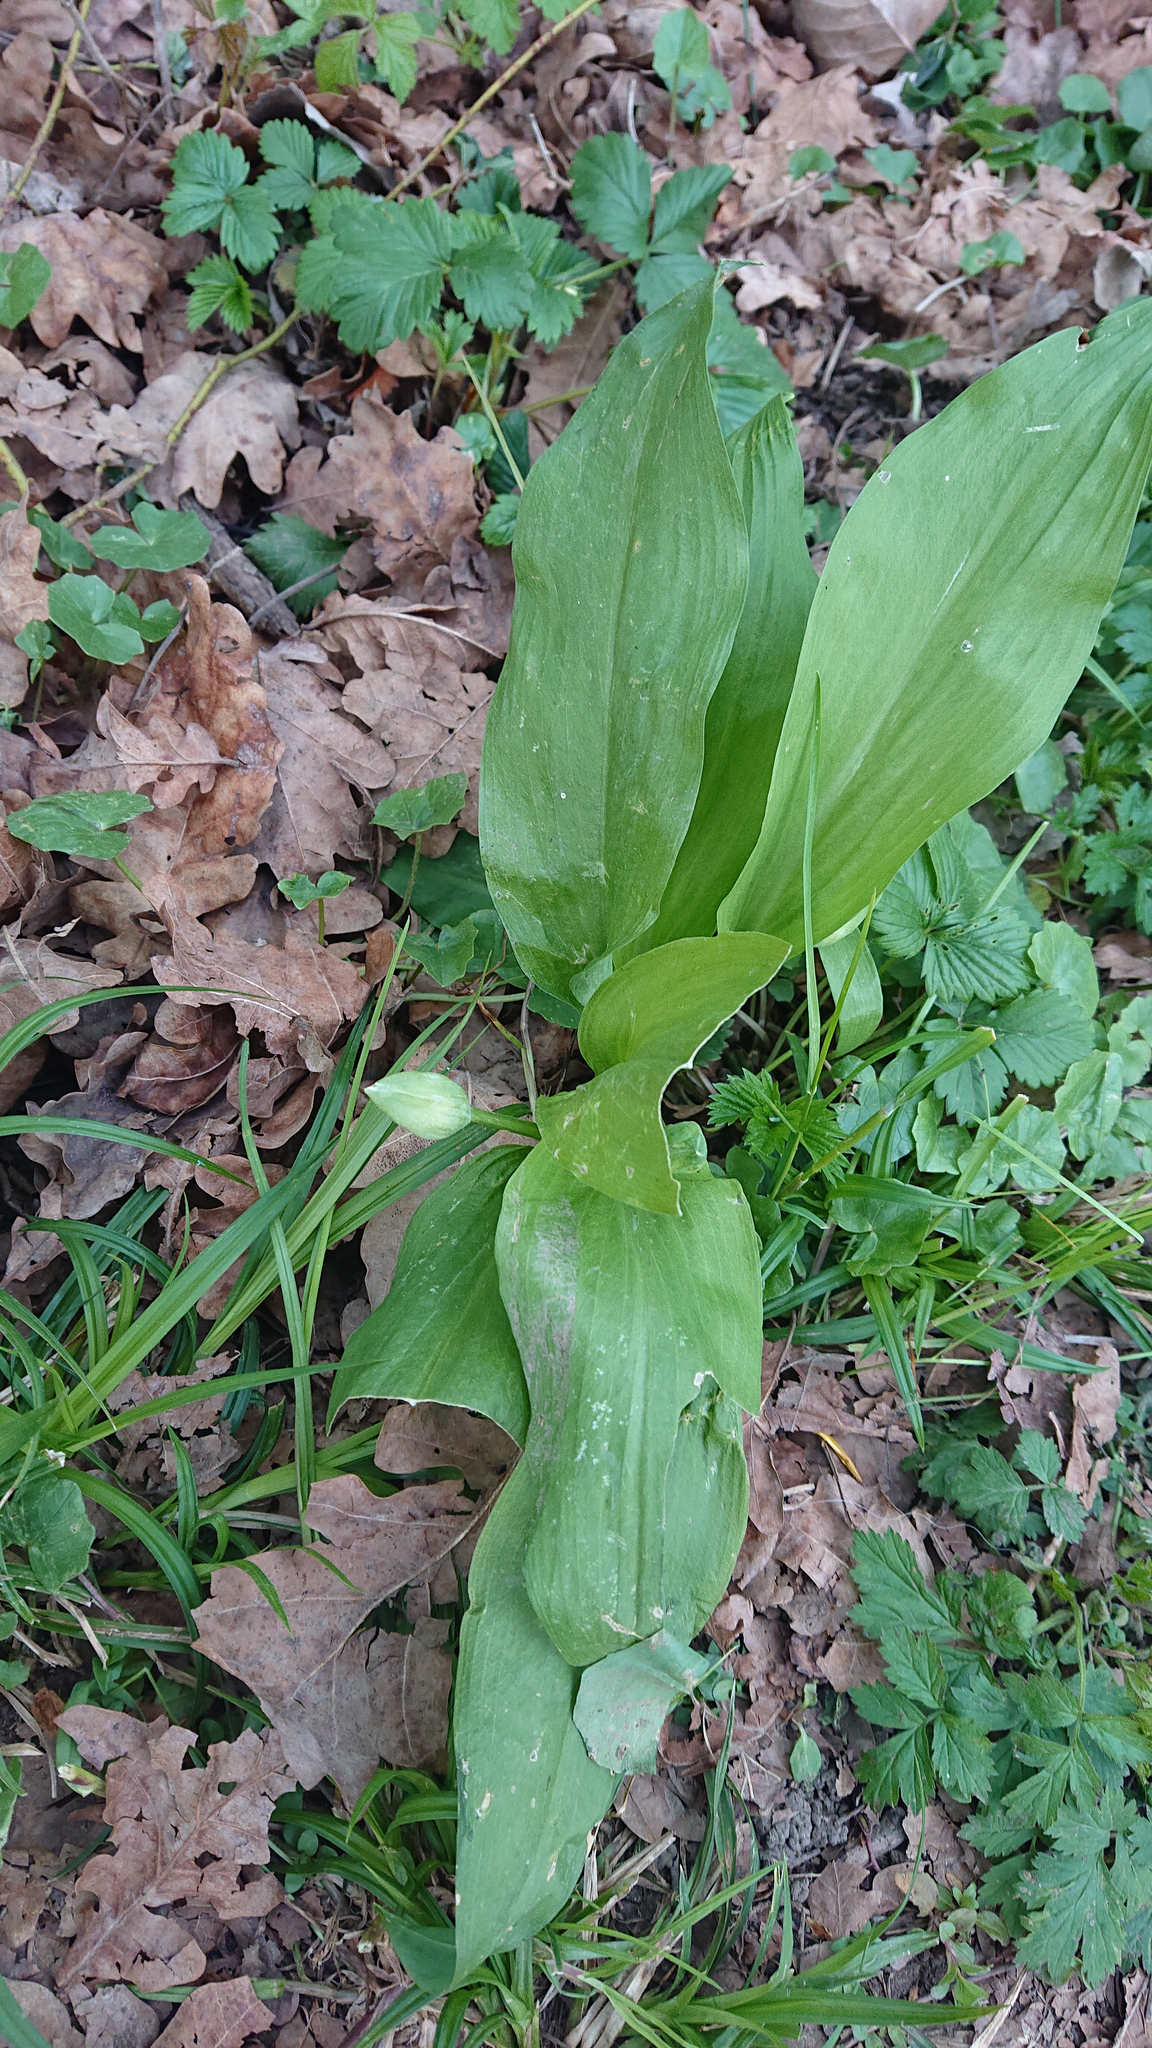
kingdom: Plantae
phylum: Tracheophyta
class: Liliopsida
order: Asparagales
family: Amaryllidaceae
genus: Allium
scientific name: Allium ursinum
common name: Ramsons
